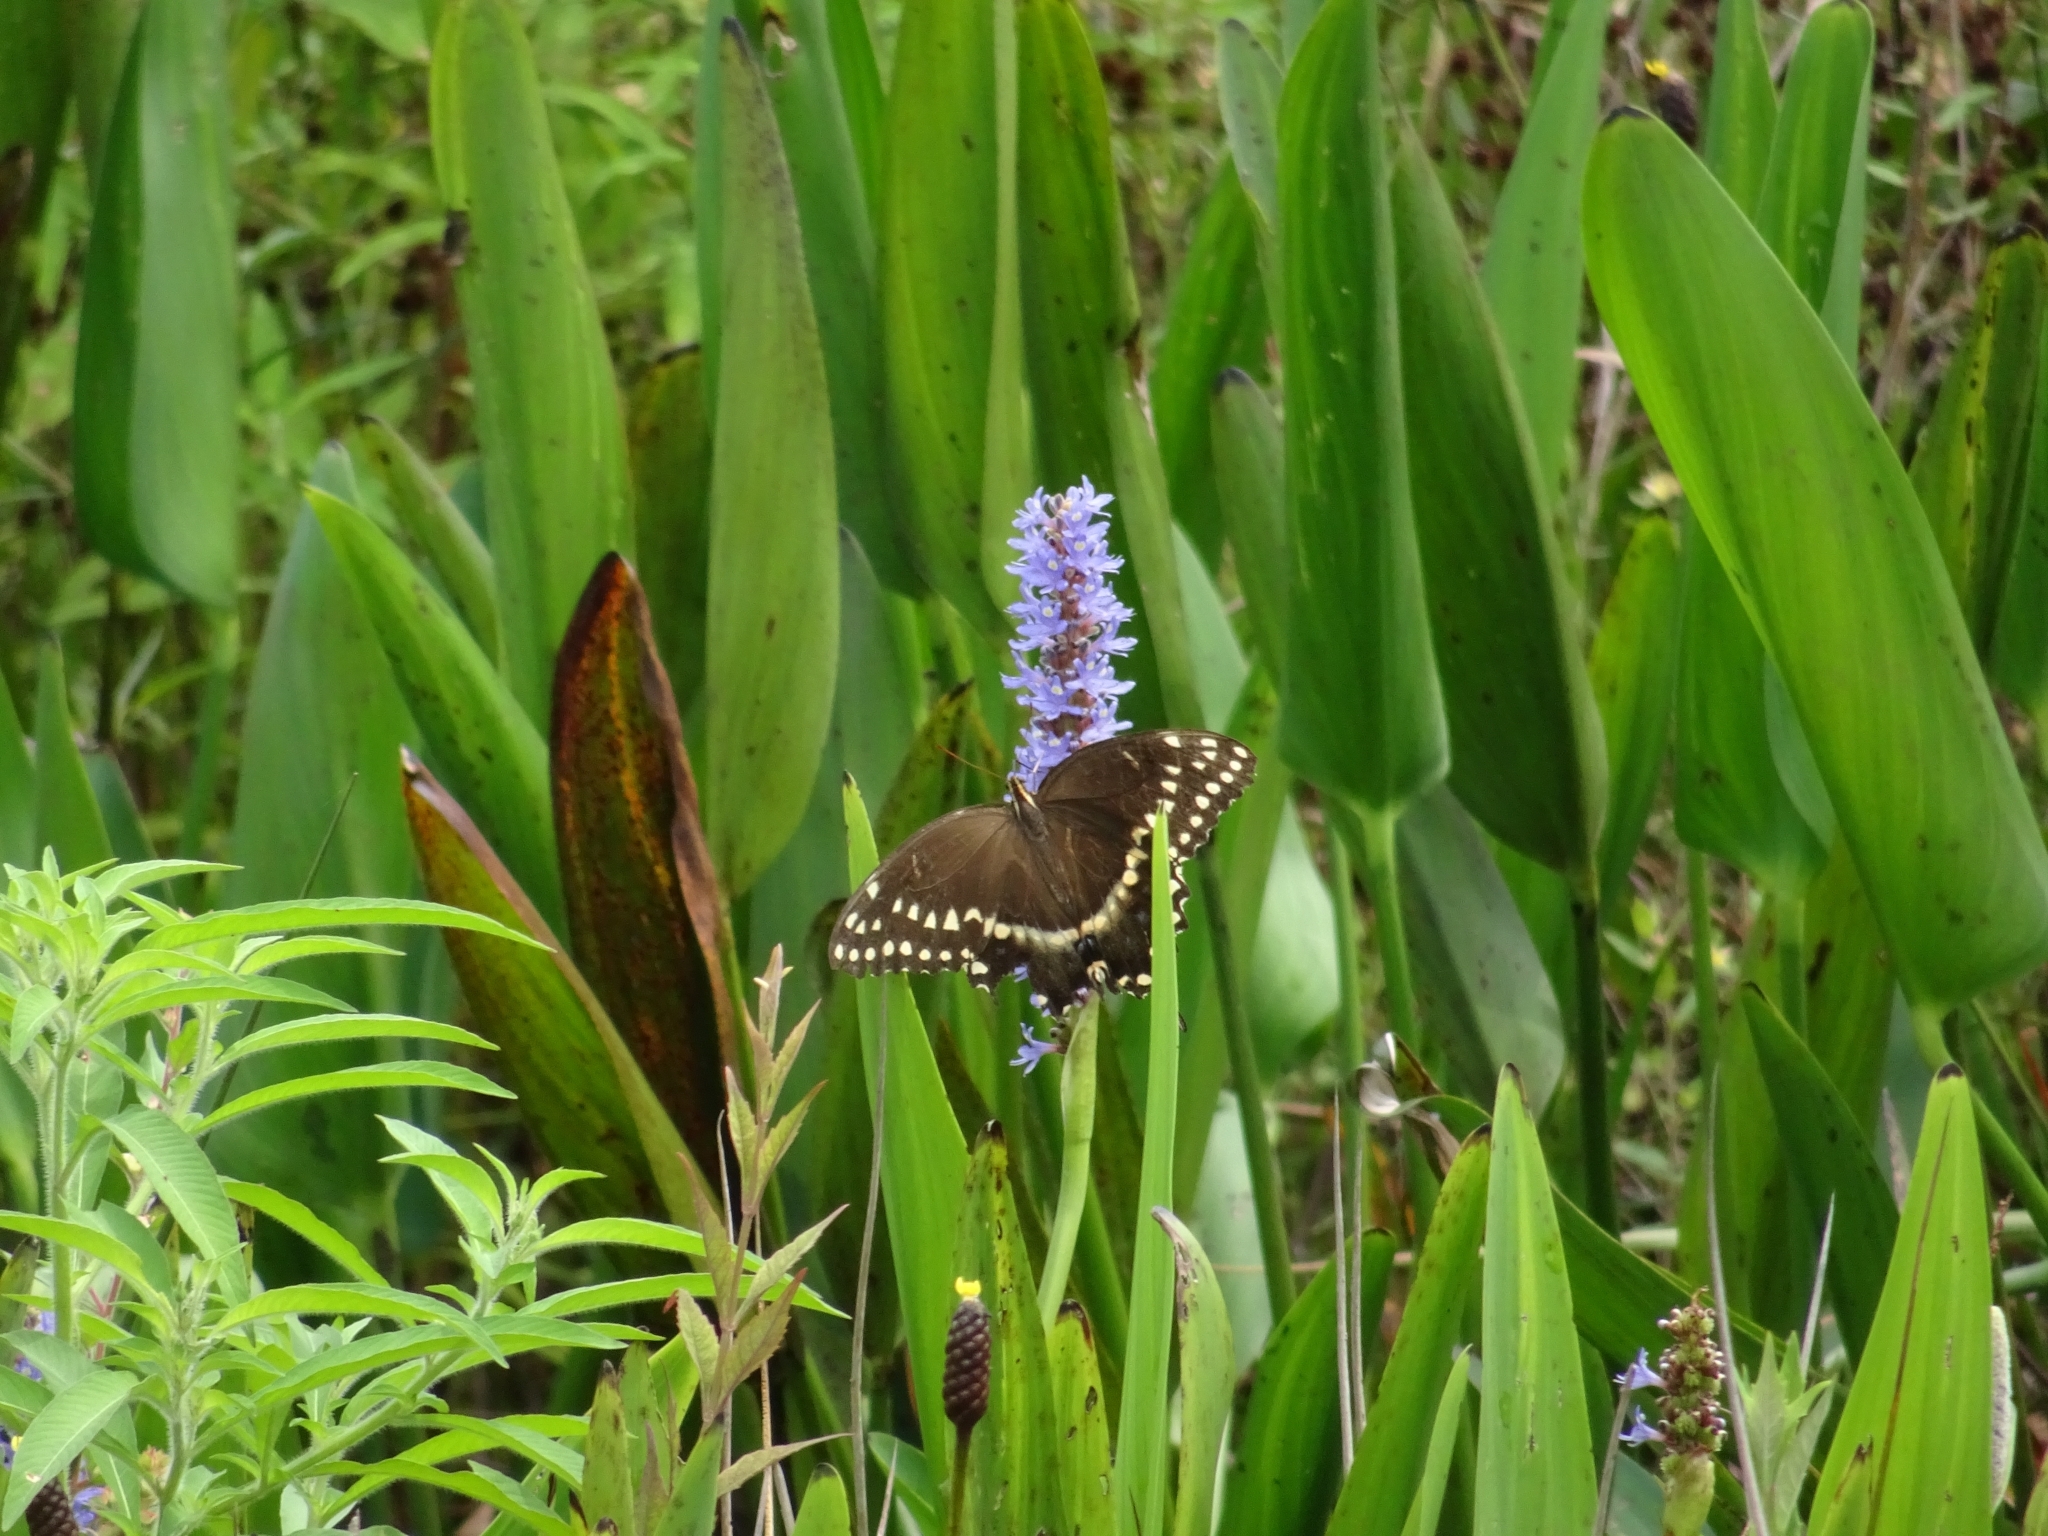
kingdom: Animalia
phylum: Arthropoda
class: Insecta
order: Lepidoptera
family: Papilionidae
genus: Papilio
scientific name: Papilio palamedes
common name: Palamedes swallowtail
